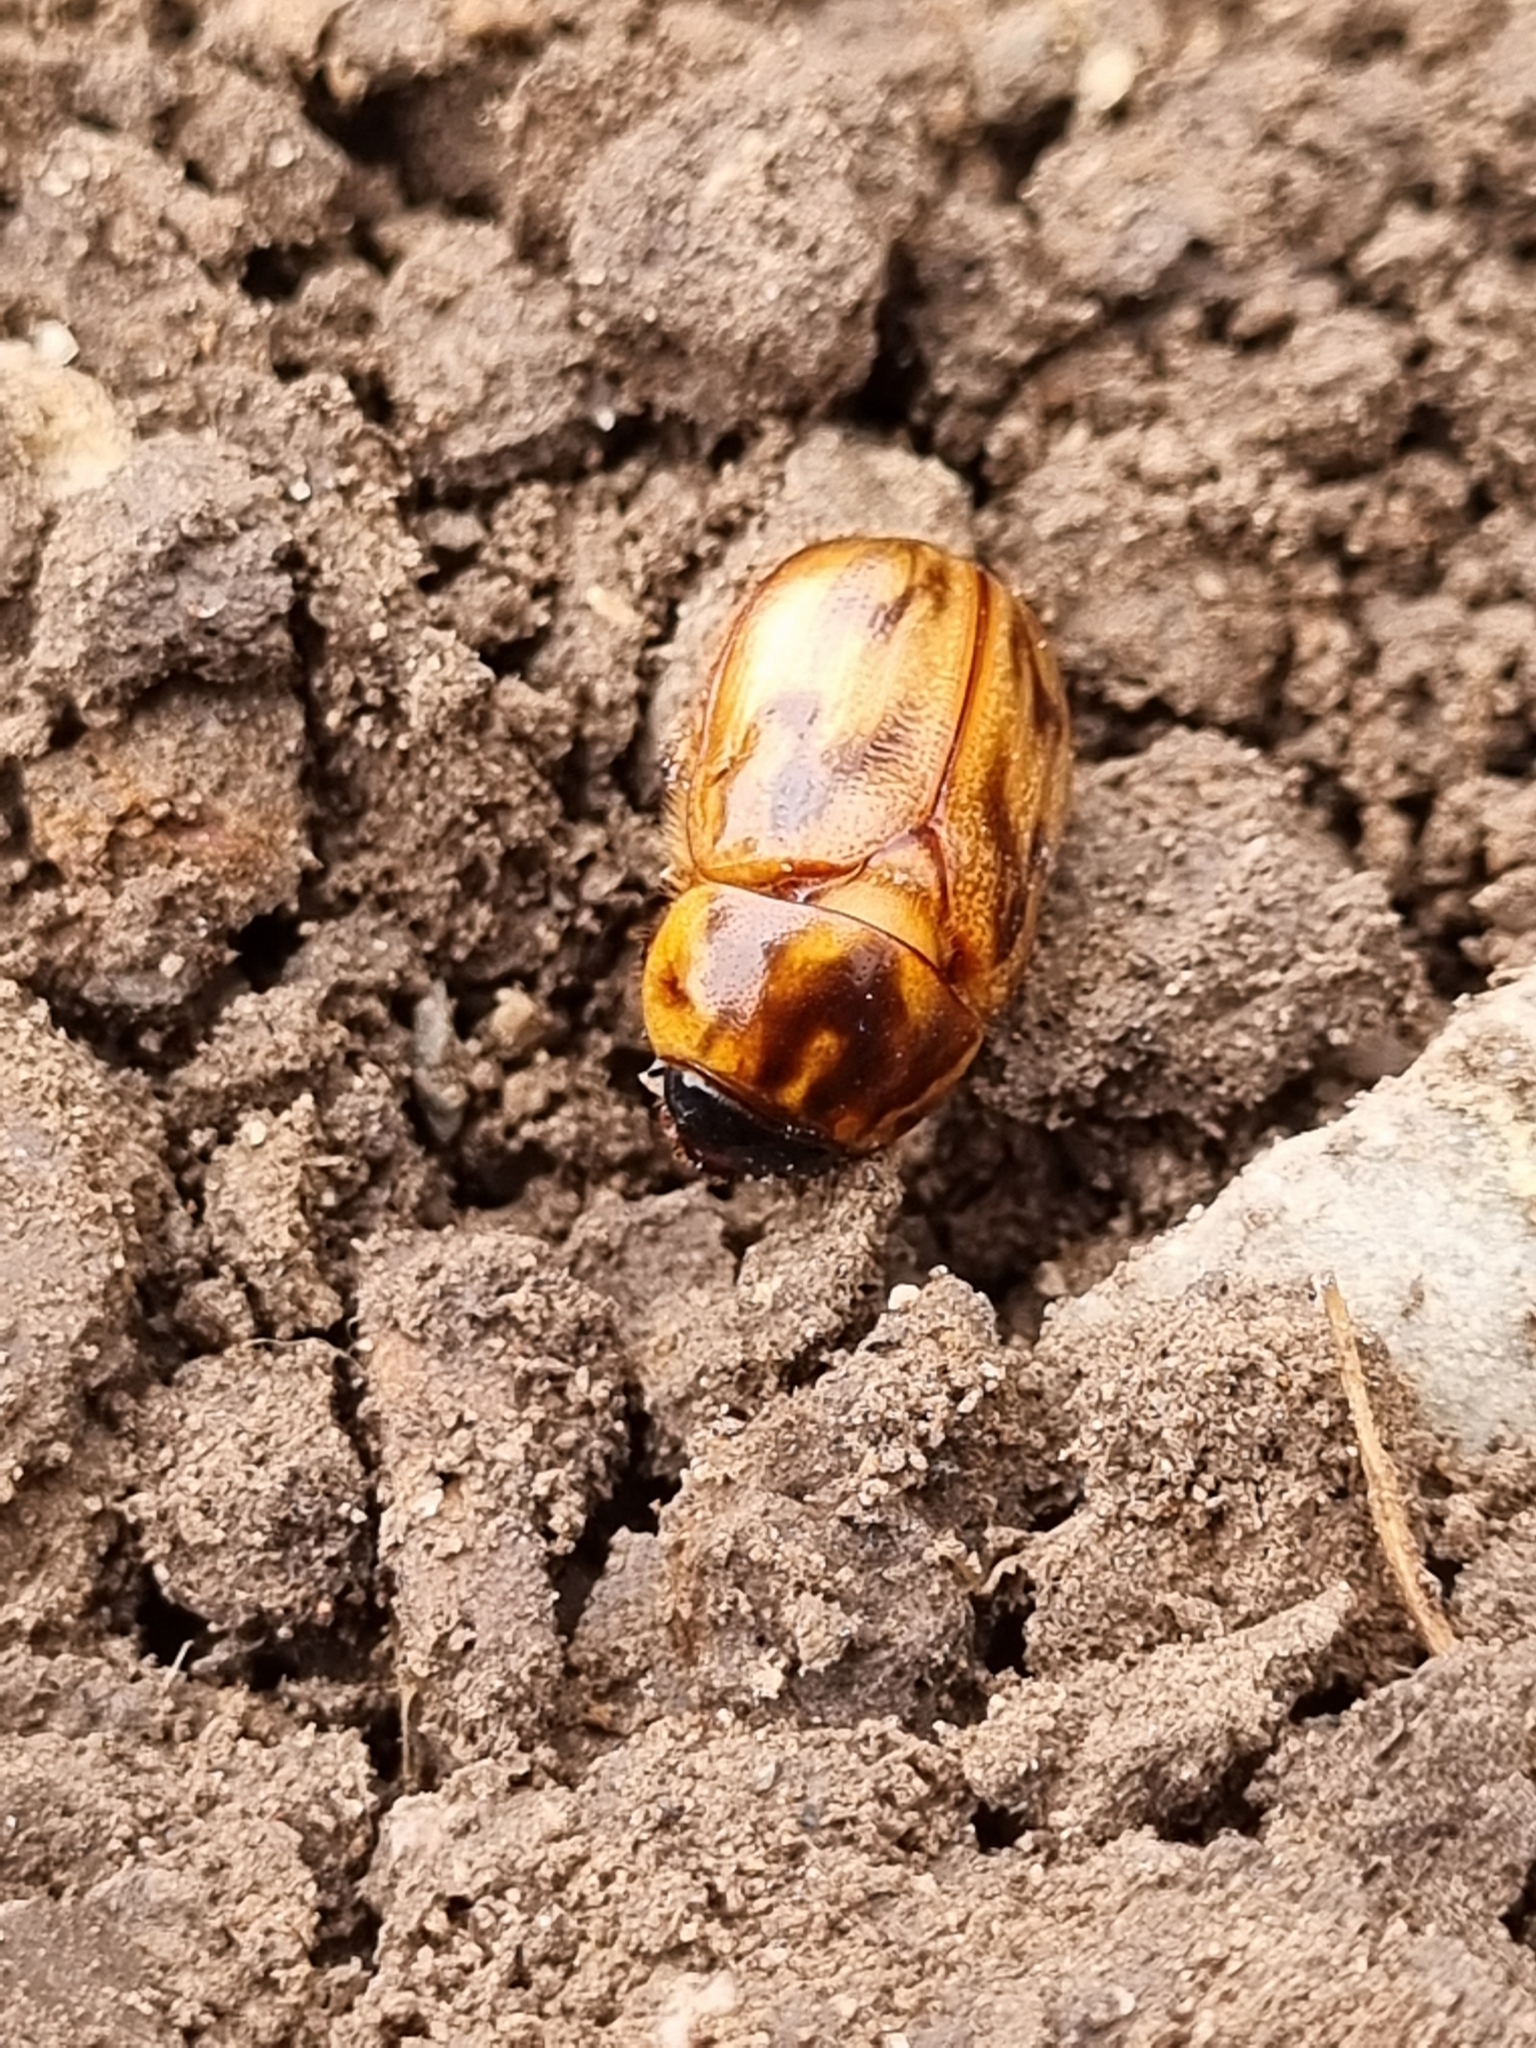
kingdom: Animalia
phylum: Arthropoda
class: Insecta
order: Coleoptera
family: Scarabaeidae
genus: Cyclocephala
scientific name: Cyclocephala signaticollis
